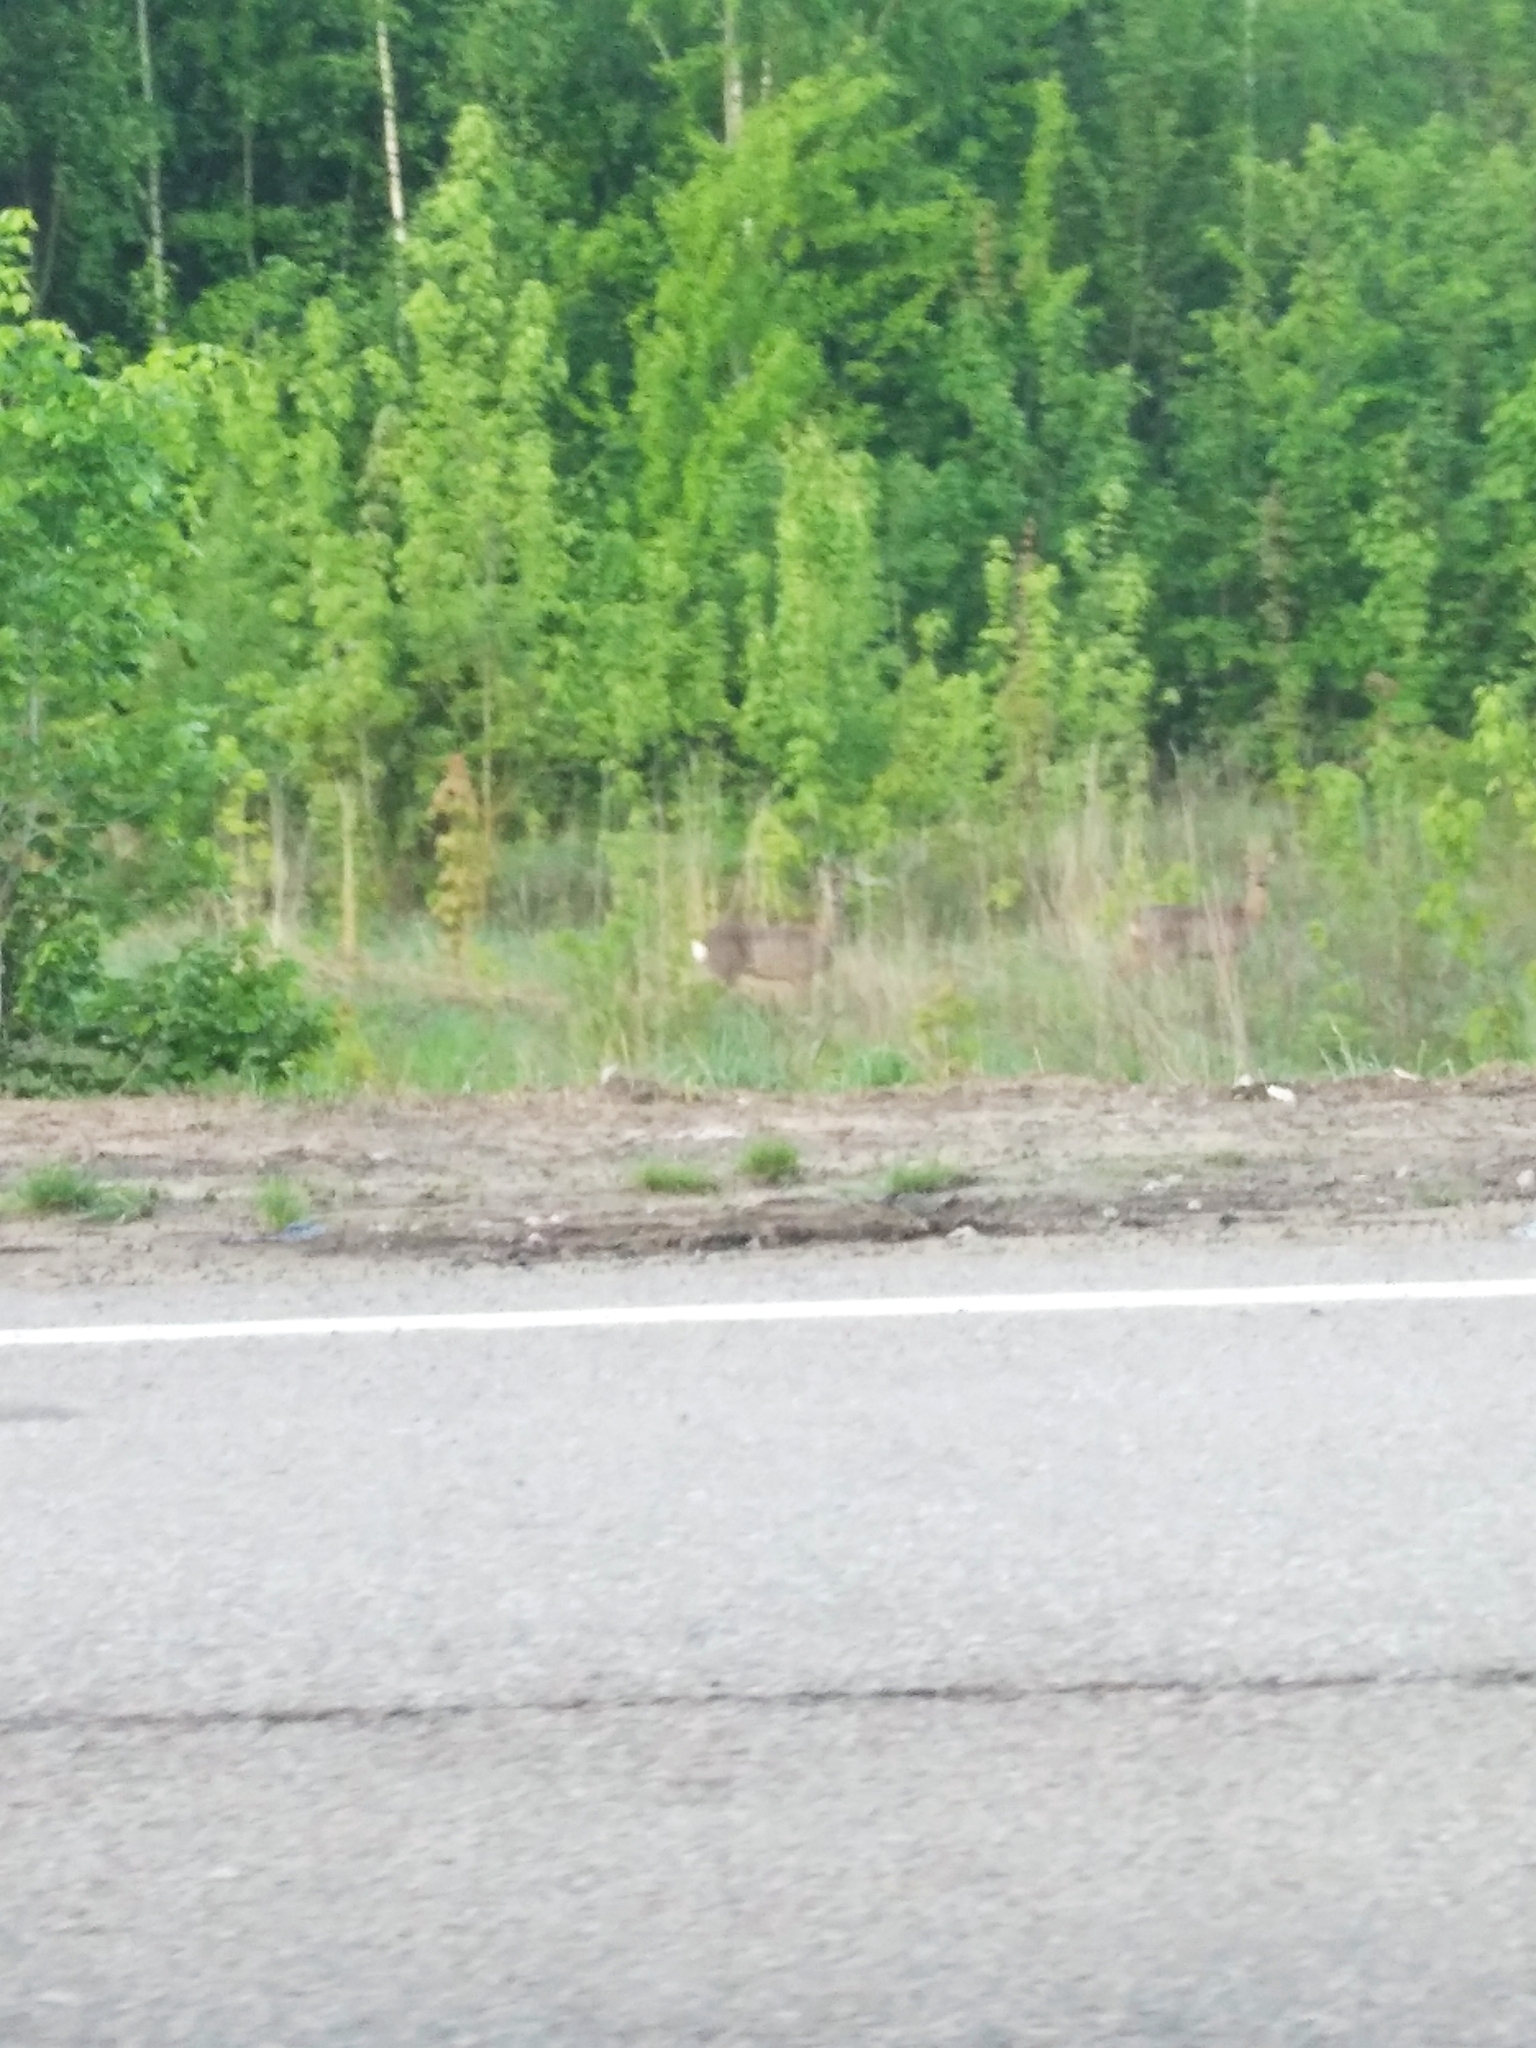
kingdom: Animalia
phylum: Chordata
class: Mammalia
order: Artiodactyla
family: Cervidae
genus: Capreolus
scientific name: Capreolus capreolus
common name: Western roe deer
